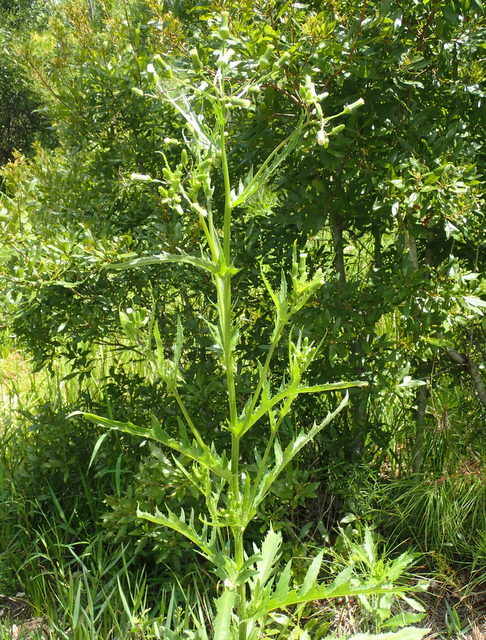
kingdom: Plantae
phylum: Tracheophyta
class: Magnoliopsida
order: Asterales
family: Asteraceae
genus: Erechtites
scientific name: Erechtites hieraciifolius
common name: American burnweed
